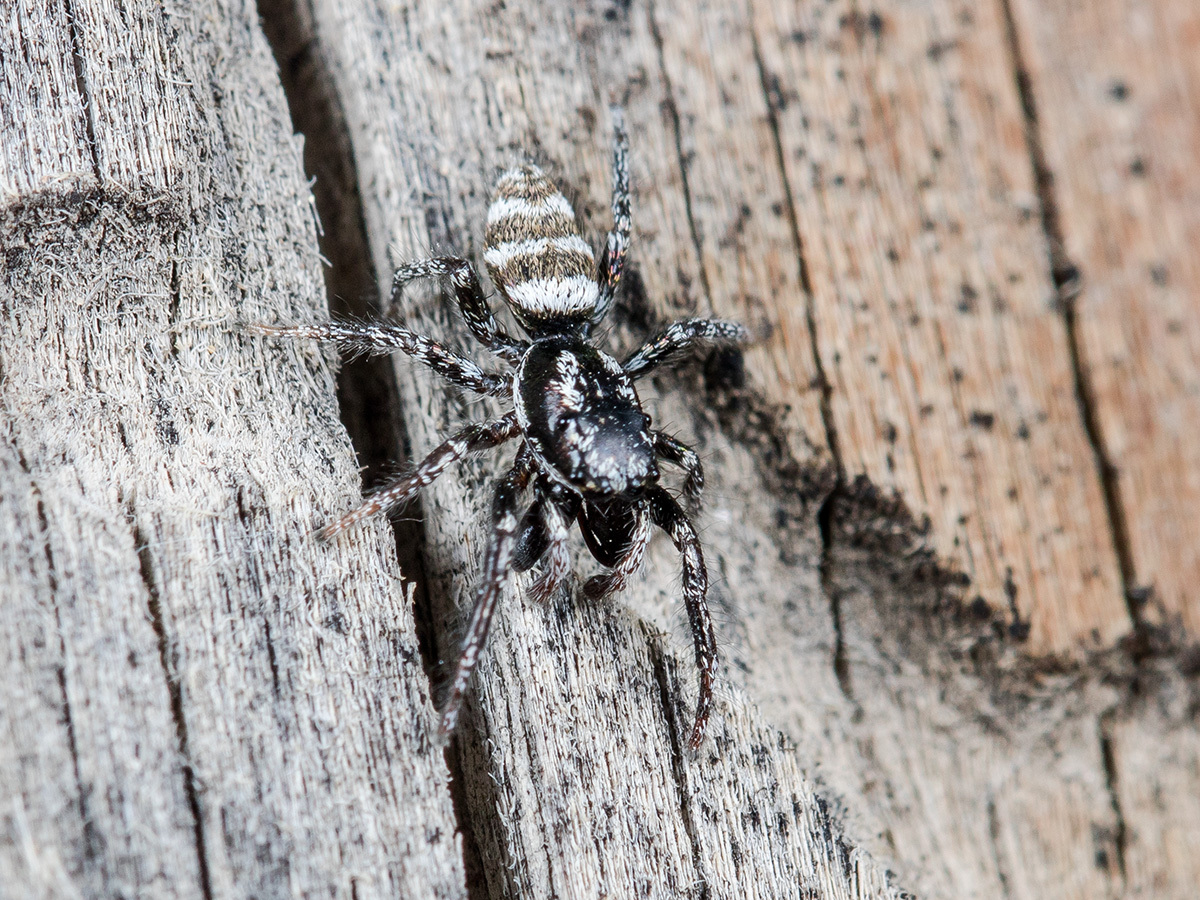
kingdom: Animalia
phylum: Arthropoda
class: Arachnida
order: Araneae
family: Salticidae
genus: Salticus
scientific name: Salticus tricinctus
